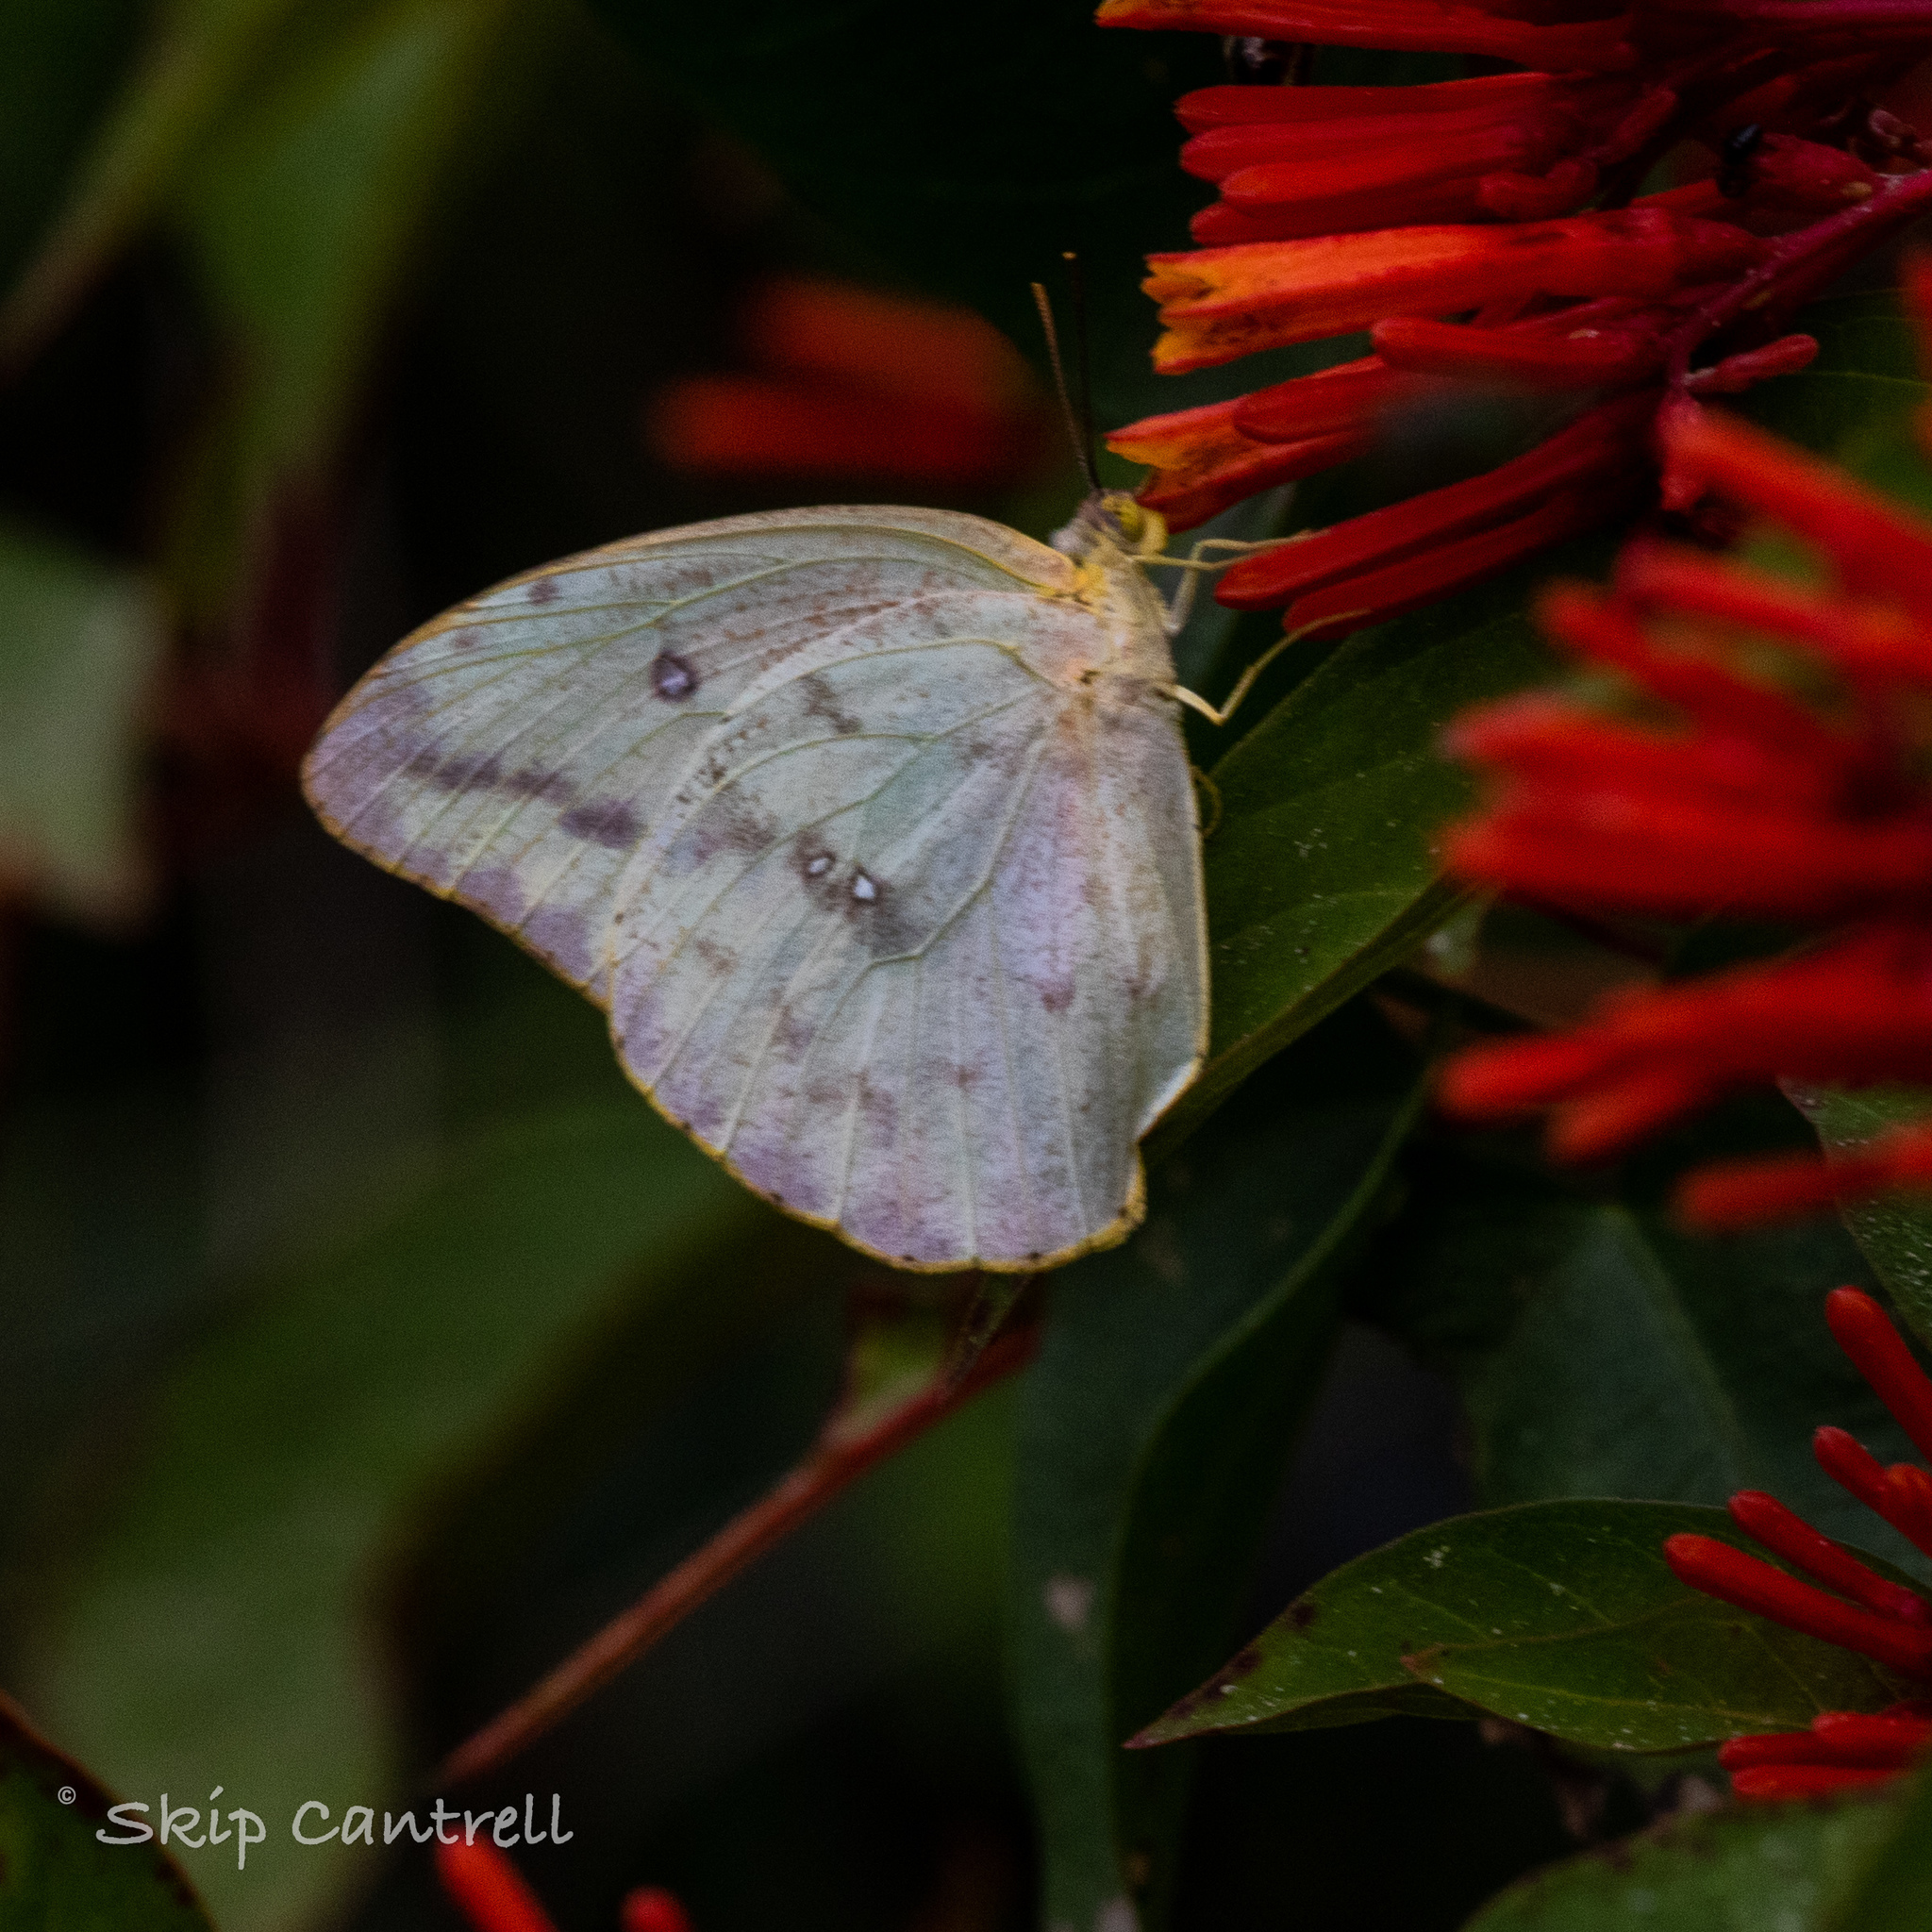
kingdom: Animalia
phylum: Arthropoda
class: Insecta
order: Lepidoptera
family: Pieridae
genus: Phoebis
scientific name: Phoebis agarithe
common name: Large orange sulphur
